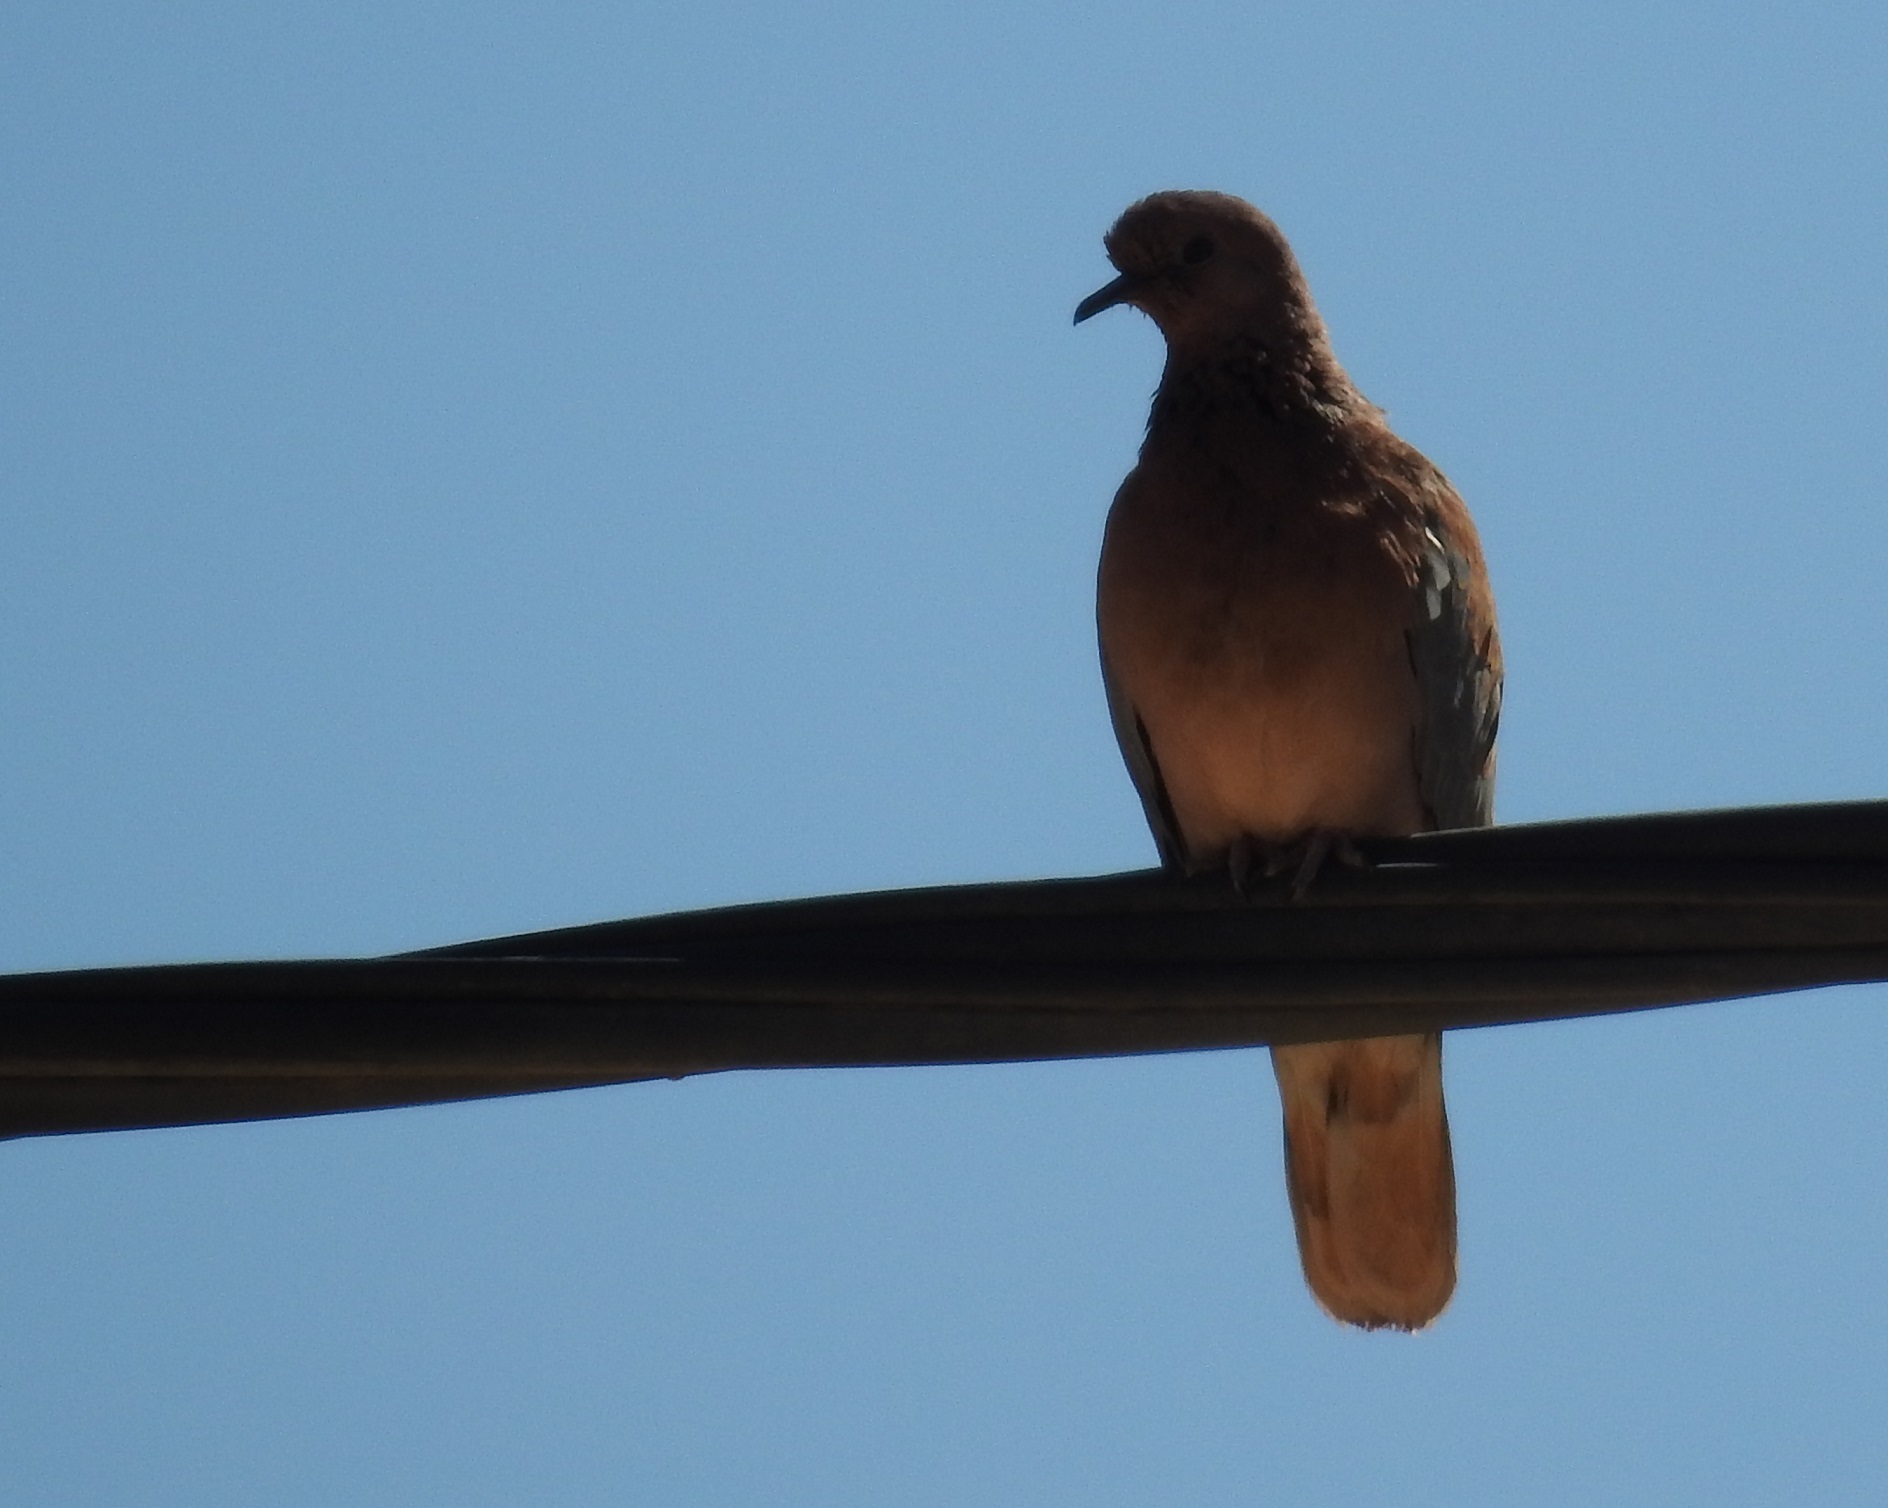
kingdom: Animalia
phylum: Chordata
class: Aves
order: Columbiformes
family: Columbidae
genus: Spilopelia
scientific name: Spilopelia senegalensis
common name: Laughing dove
